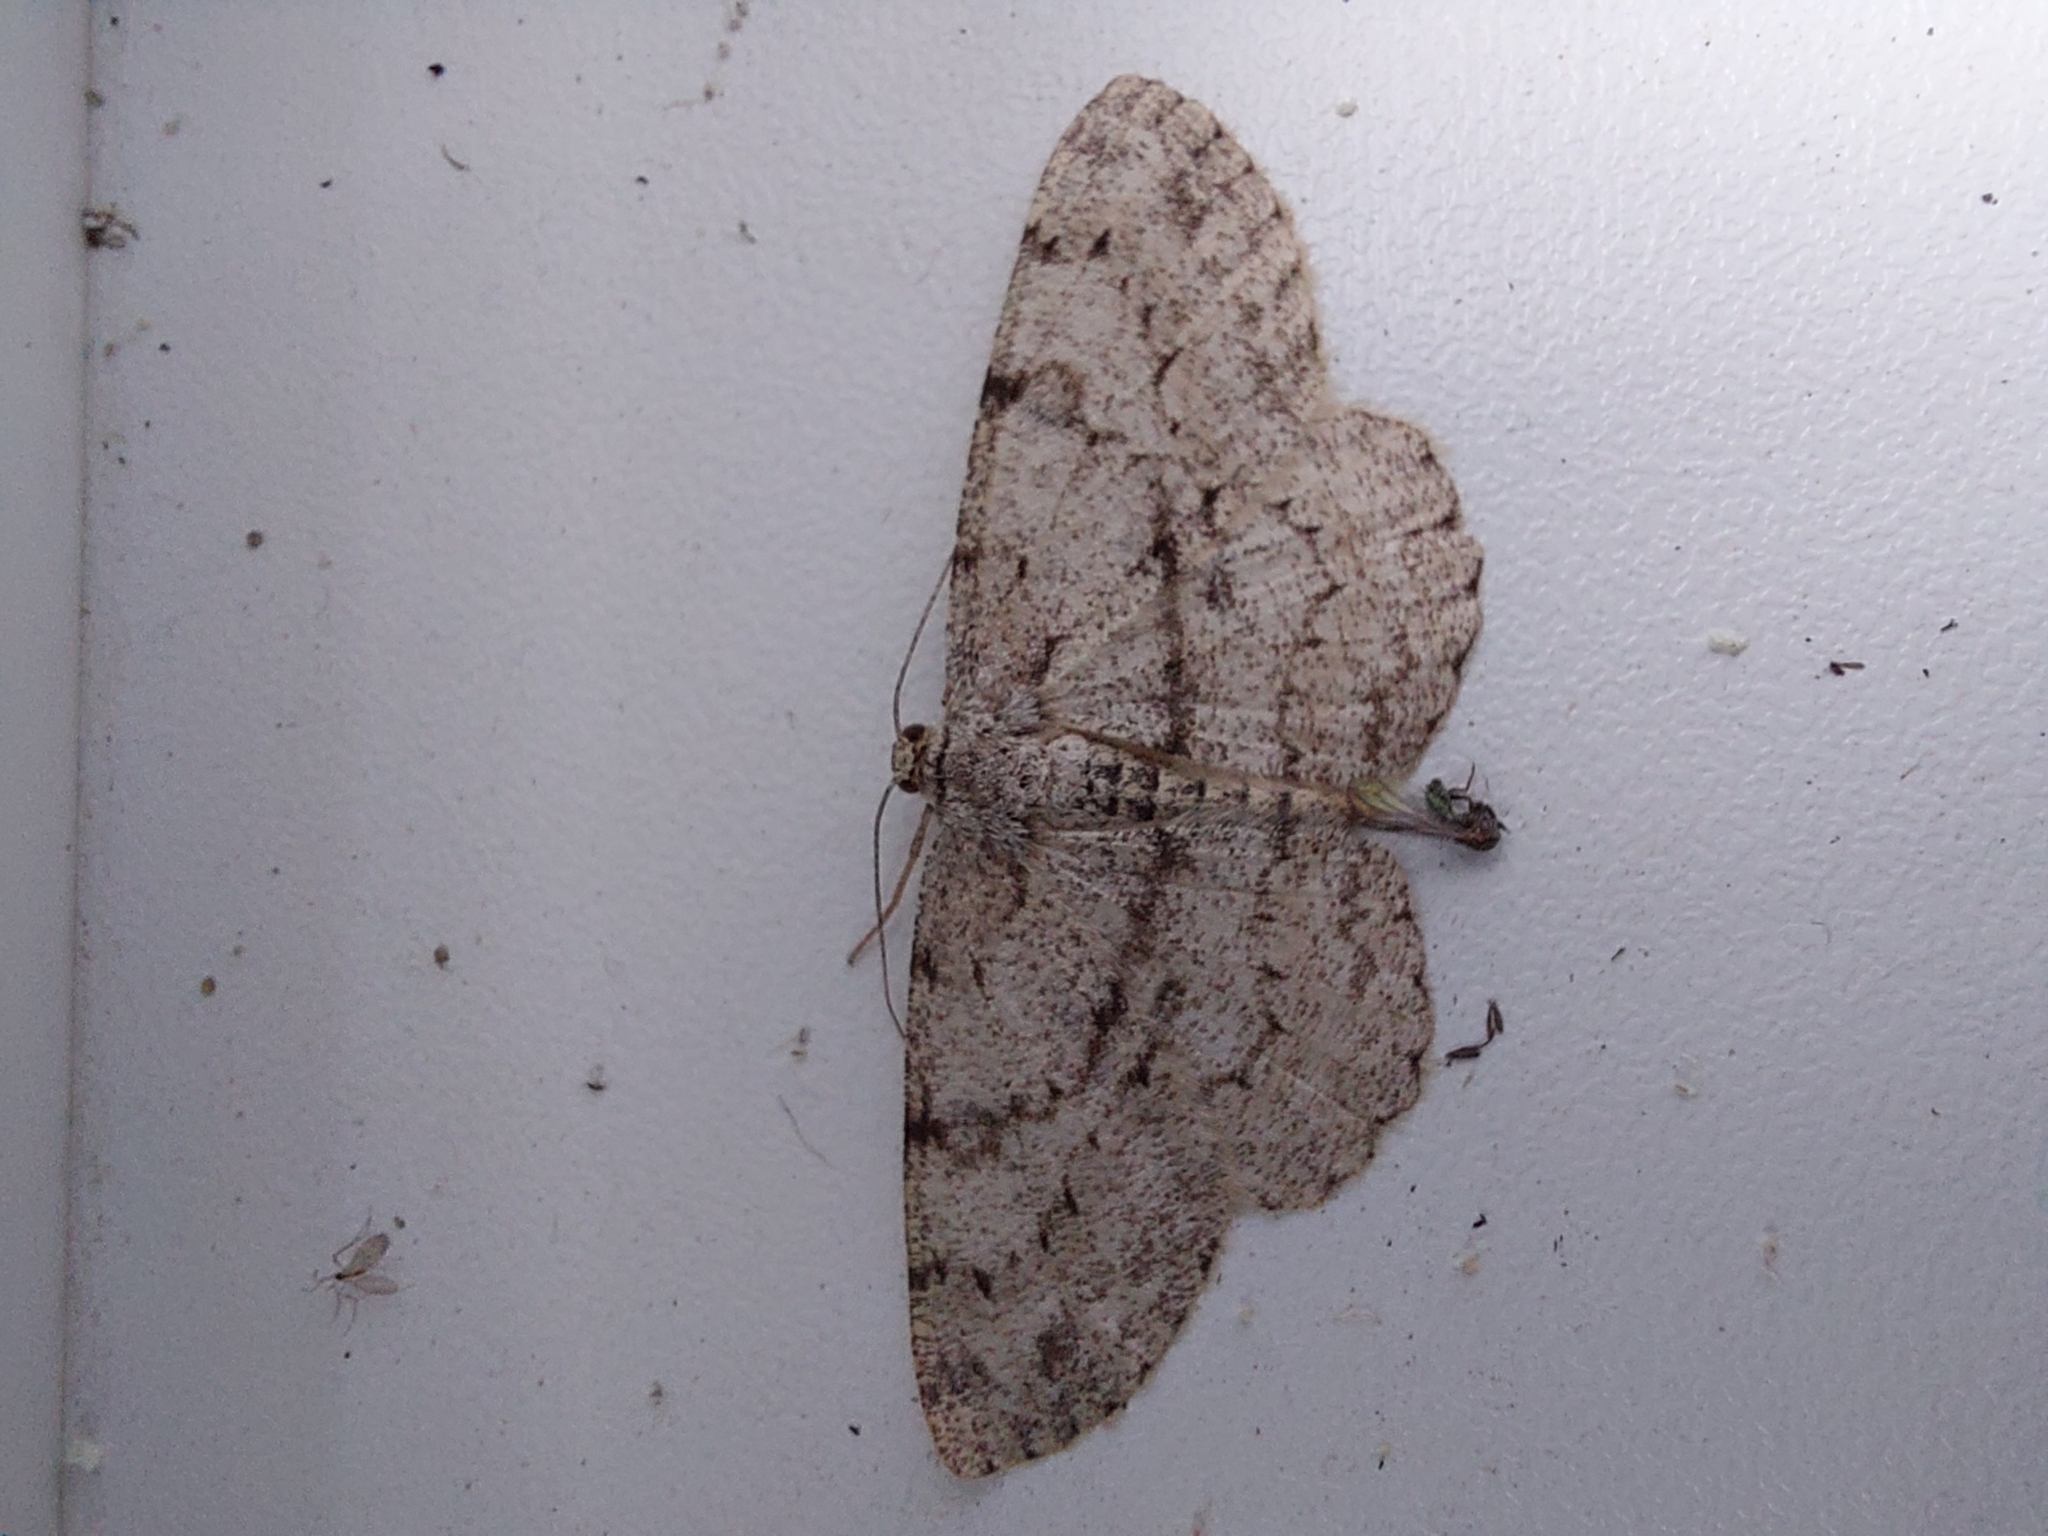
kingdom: Animalia
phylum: Arthropoda
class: Insecta
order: Lepidoptera
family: Geometridae
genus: Hypomecis
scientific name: Hypomecis punctinalis
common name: Pale oak beauty
